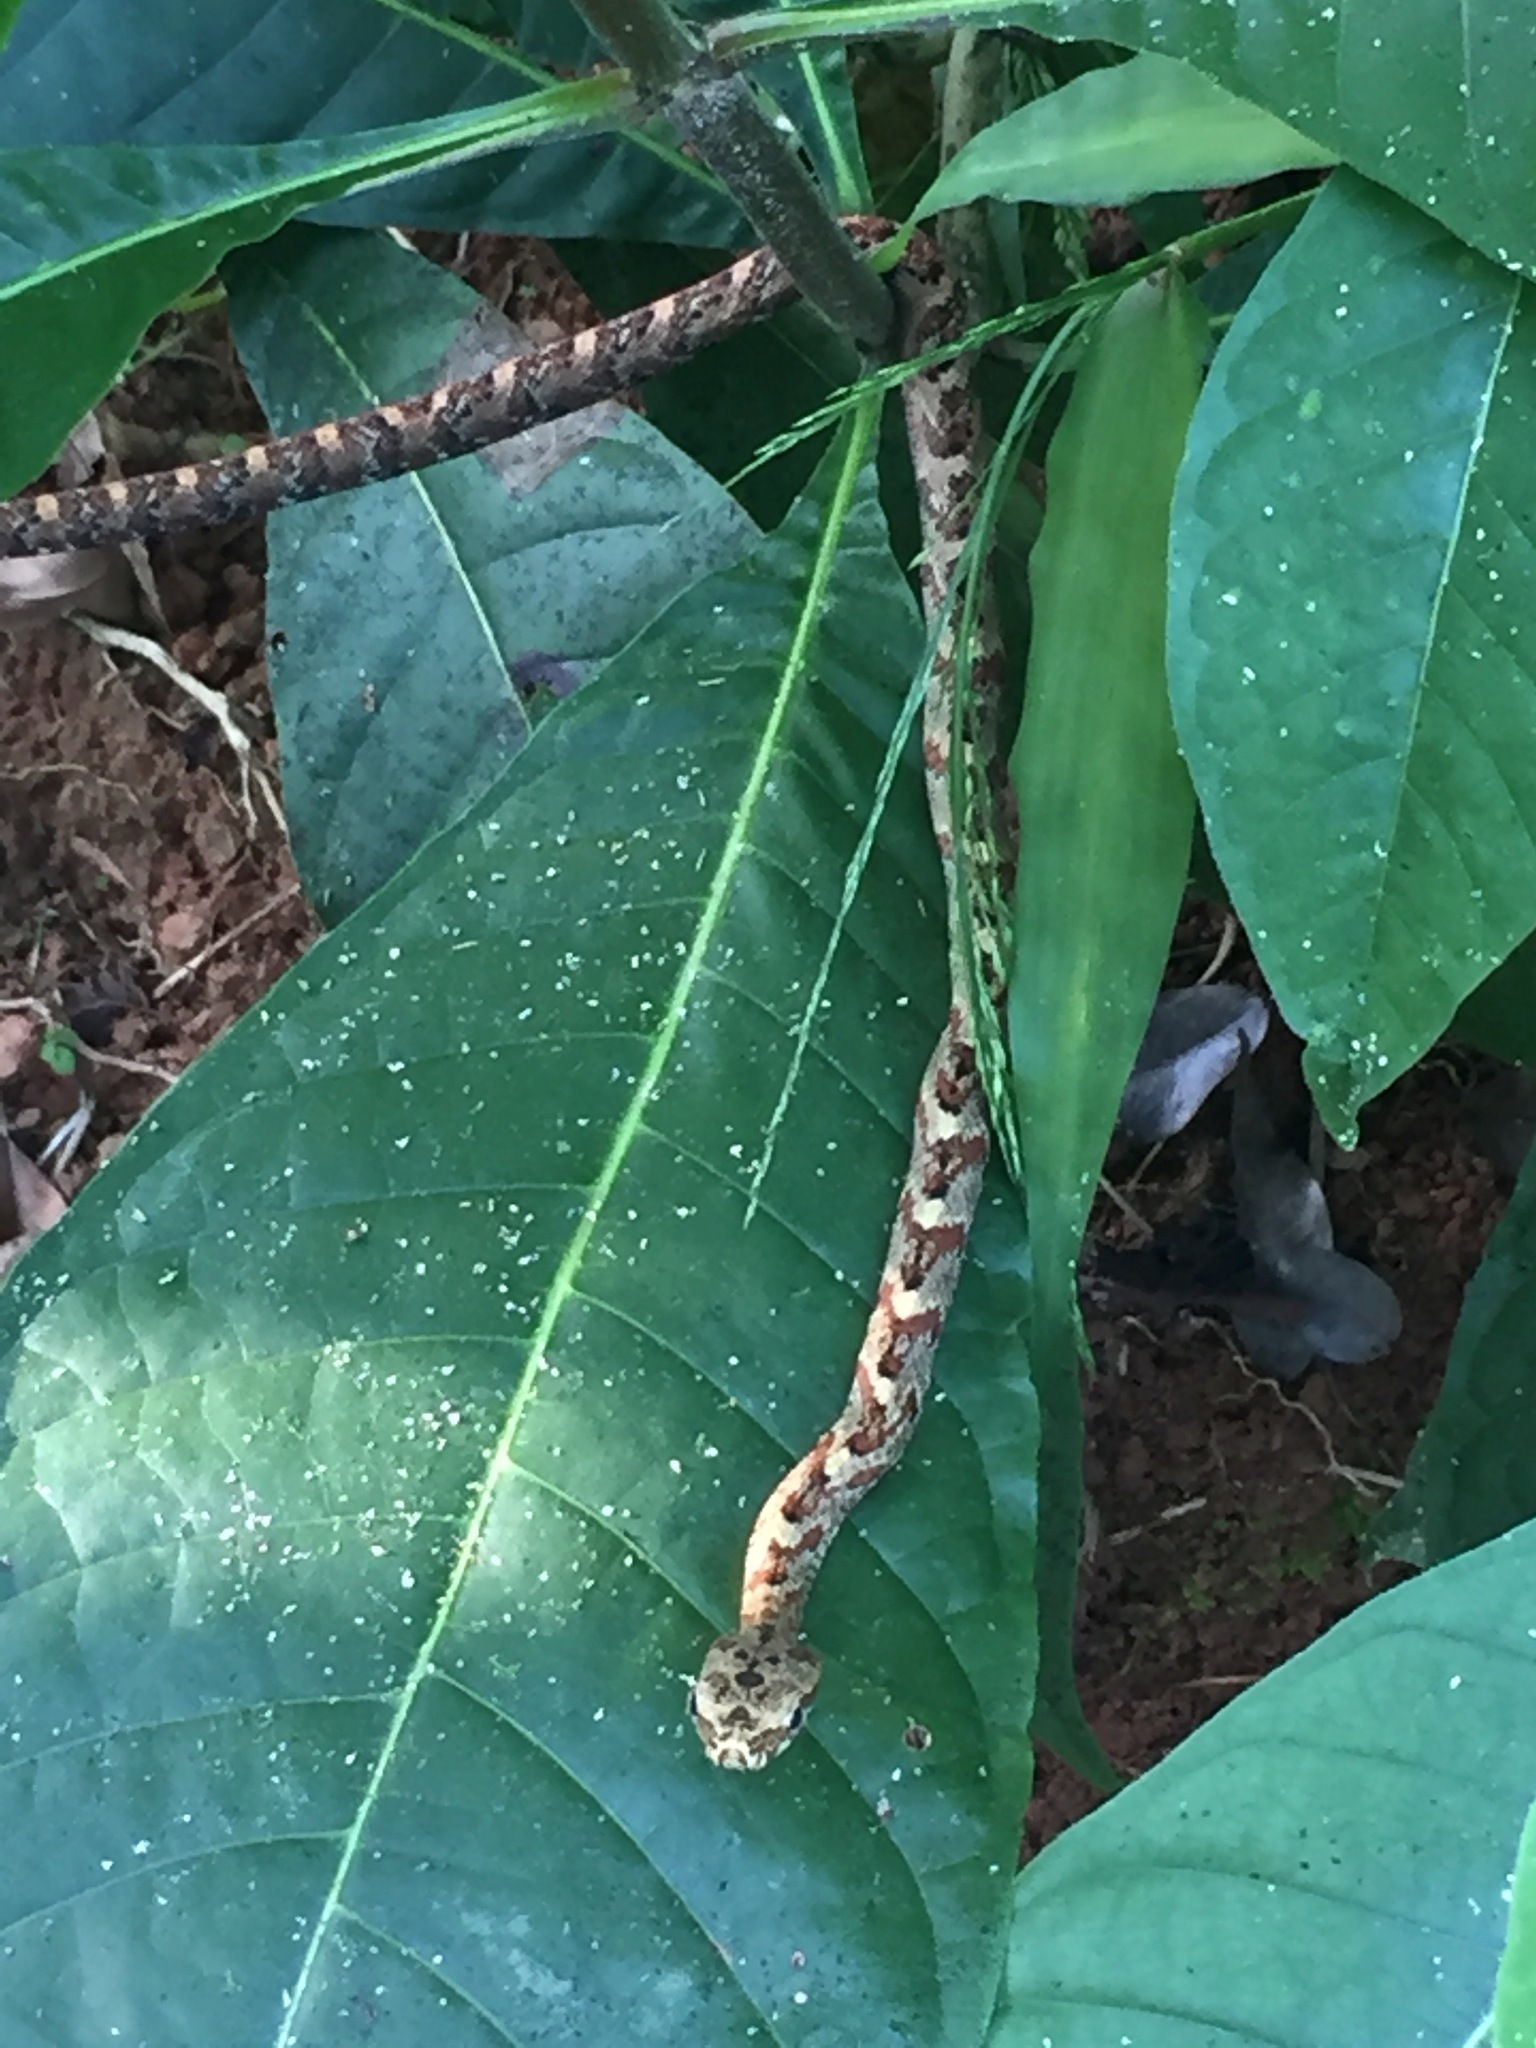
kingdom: Animalia
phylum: Chordata
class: Squamata
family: Colubridae
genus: Phrynonax
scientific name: Phrynonax poecilonotus
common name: Puffing snake
